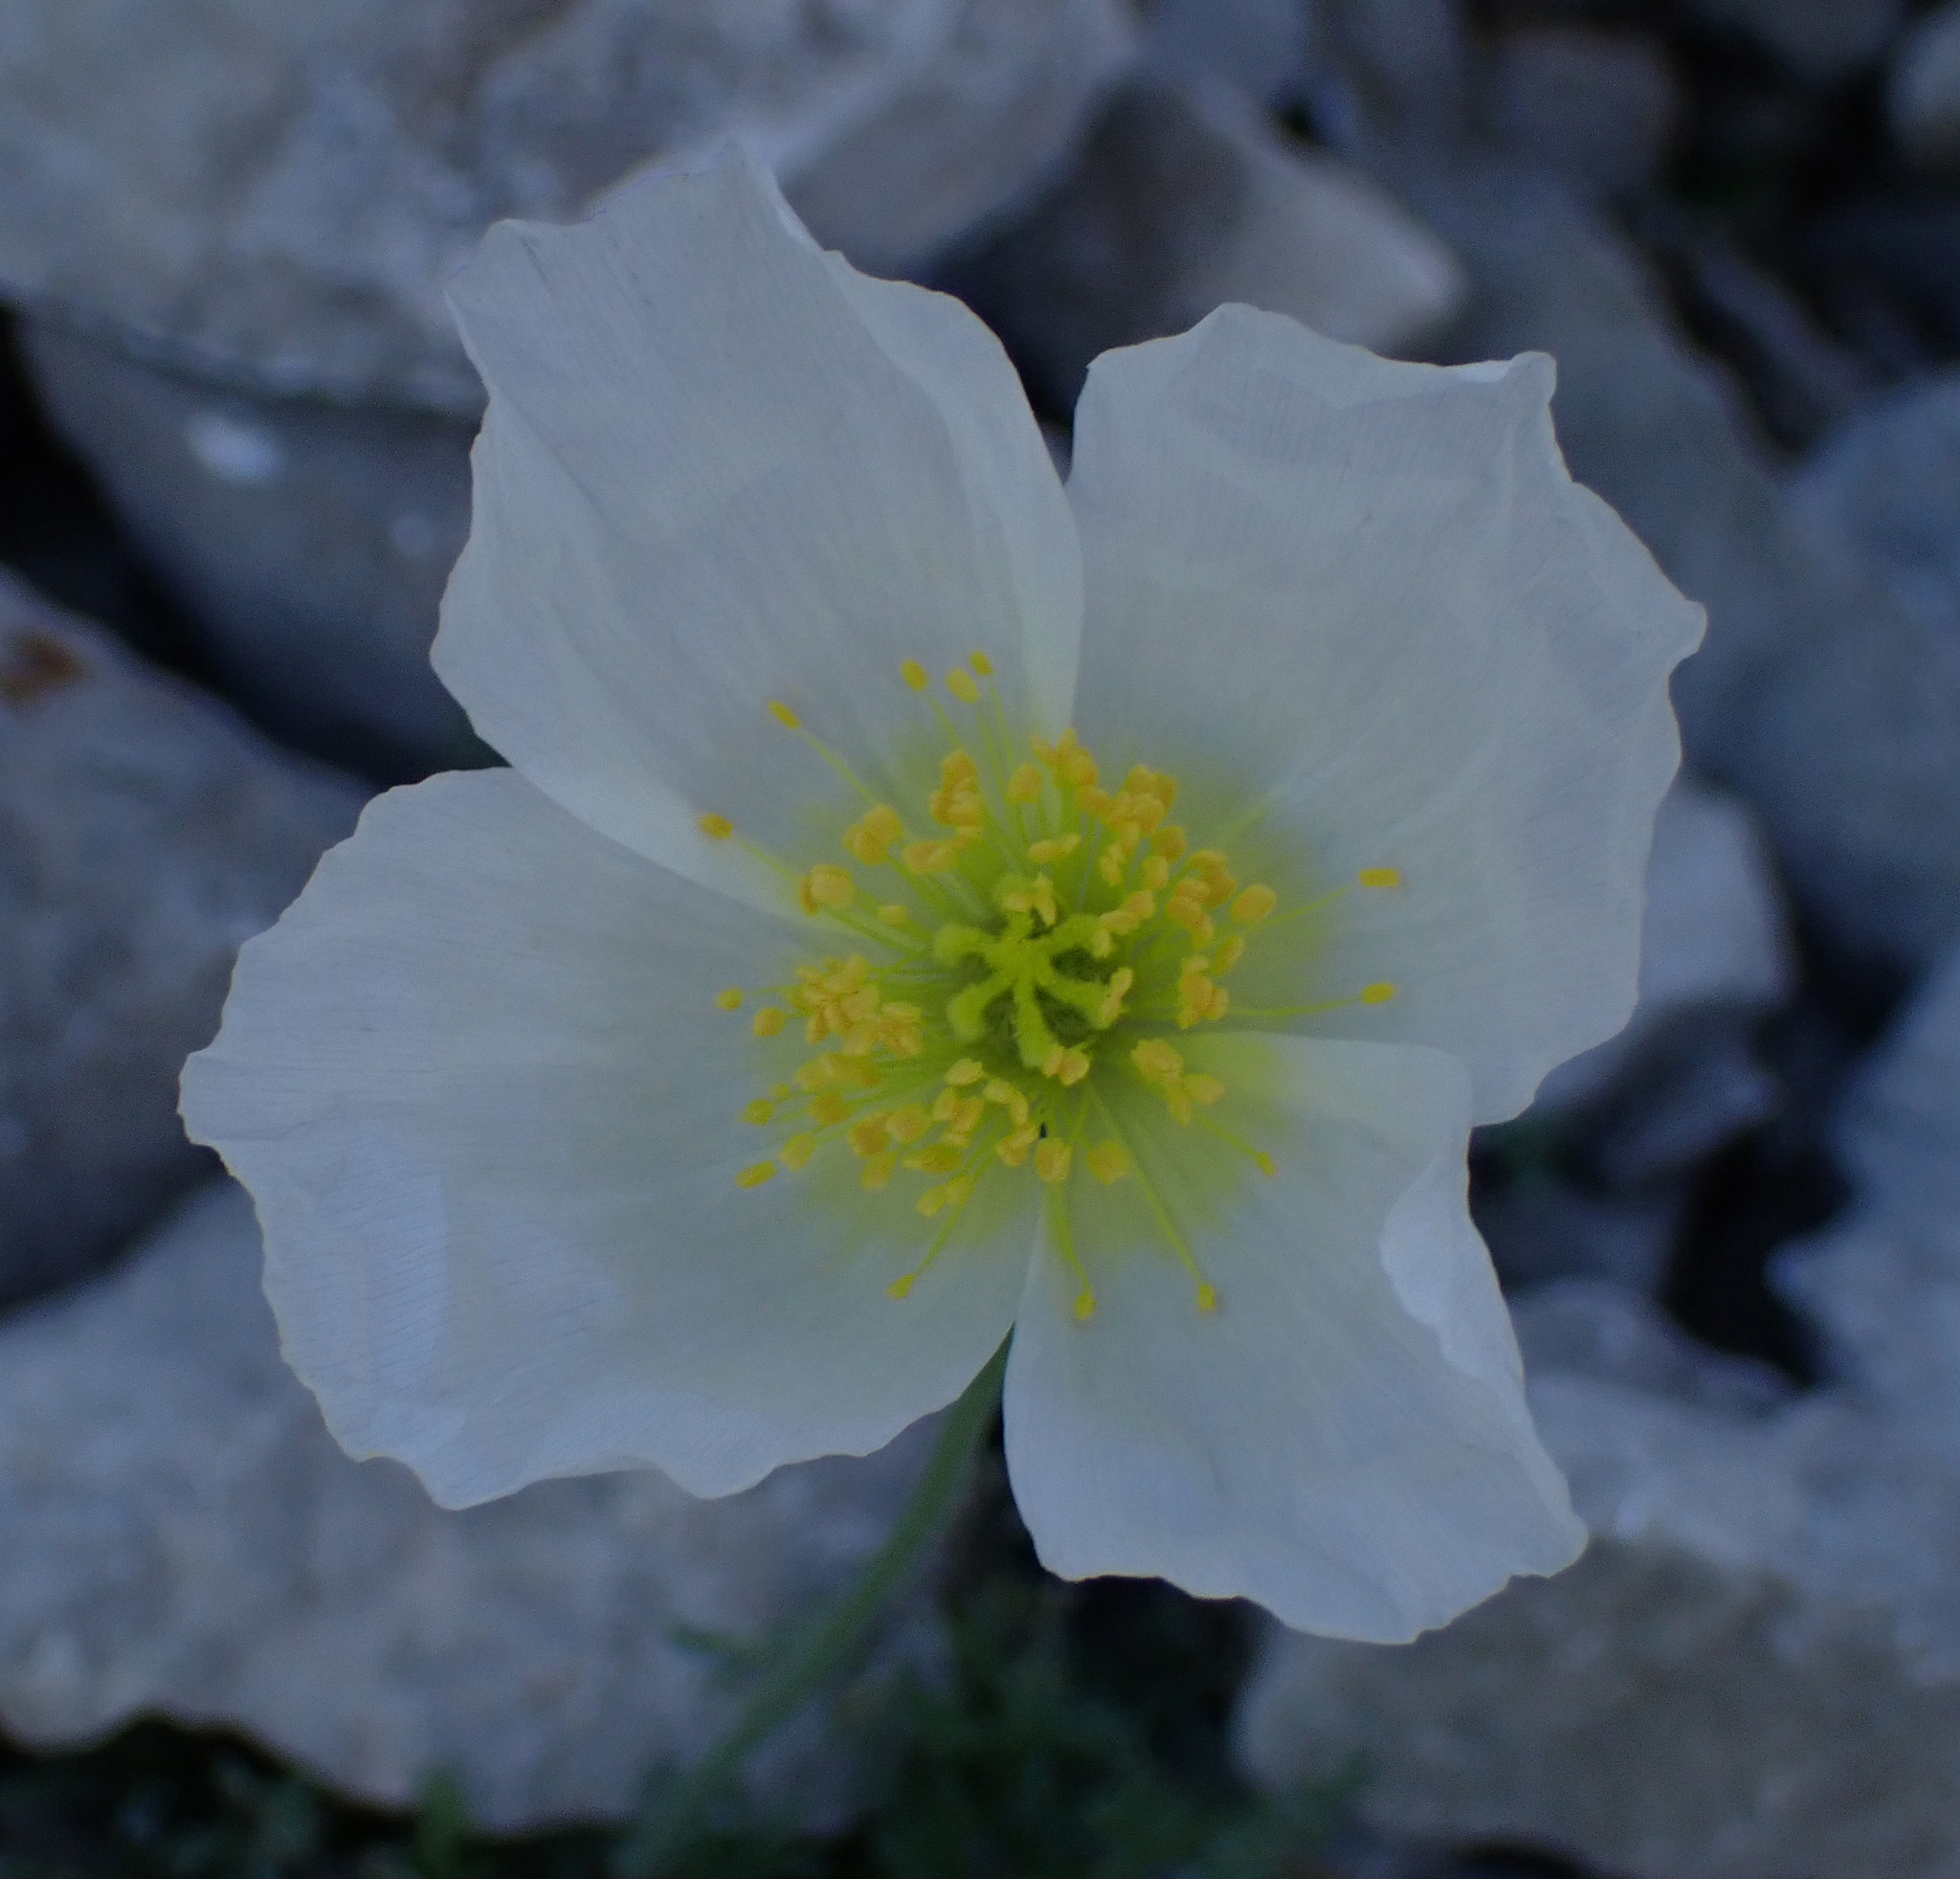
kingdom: Plantae
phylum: Tracheophyta
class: Magnoliopsida
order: Ranunculales
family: Papaveraceae
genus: Papaver
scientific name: Papaver alpinum
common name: Austrian poppy
